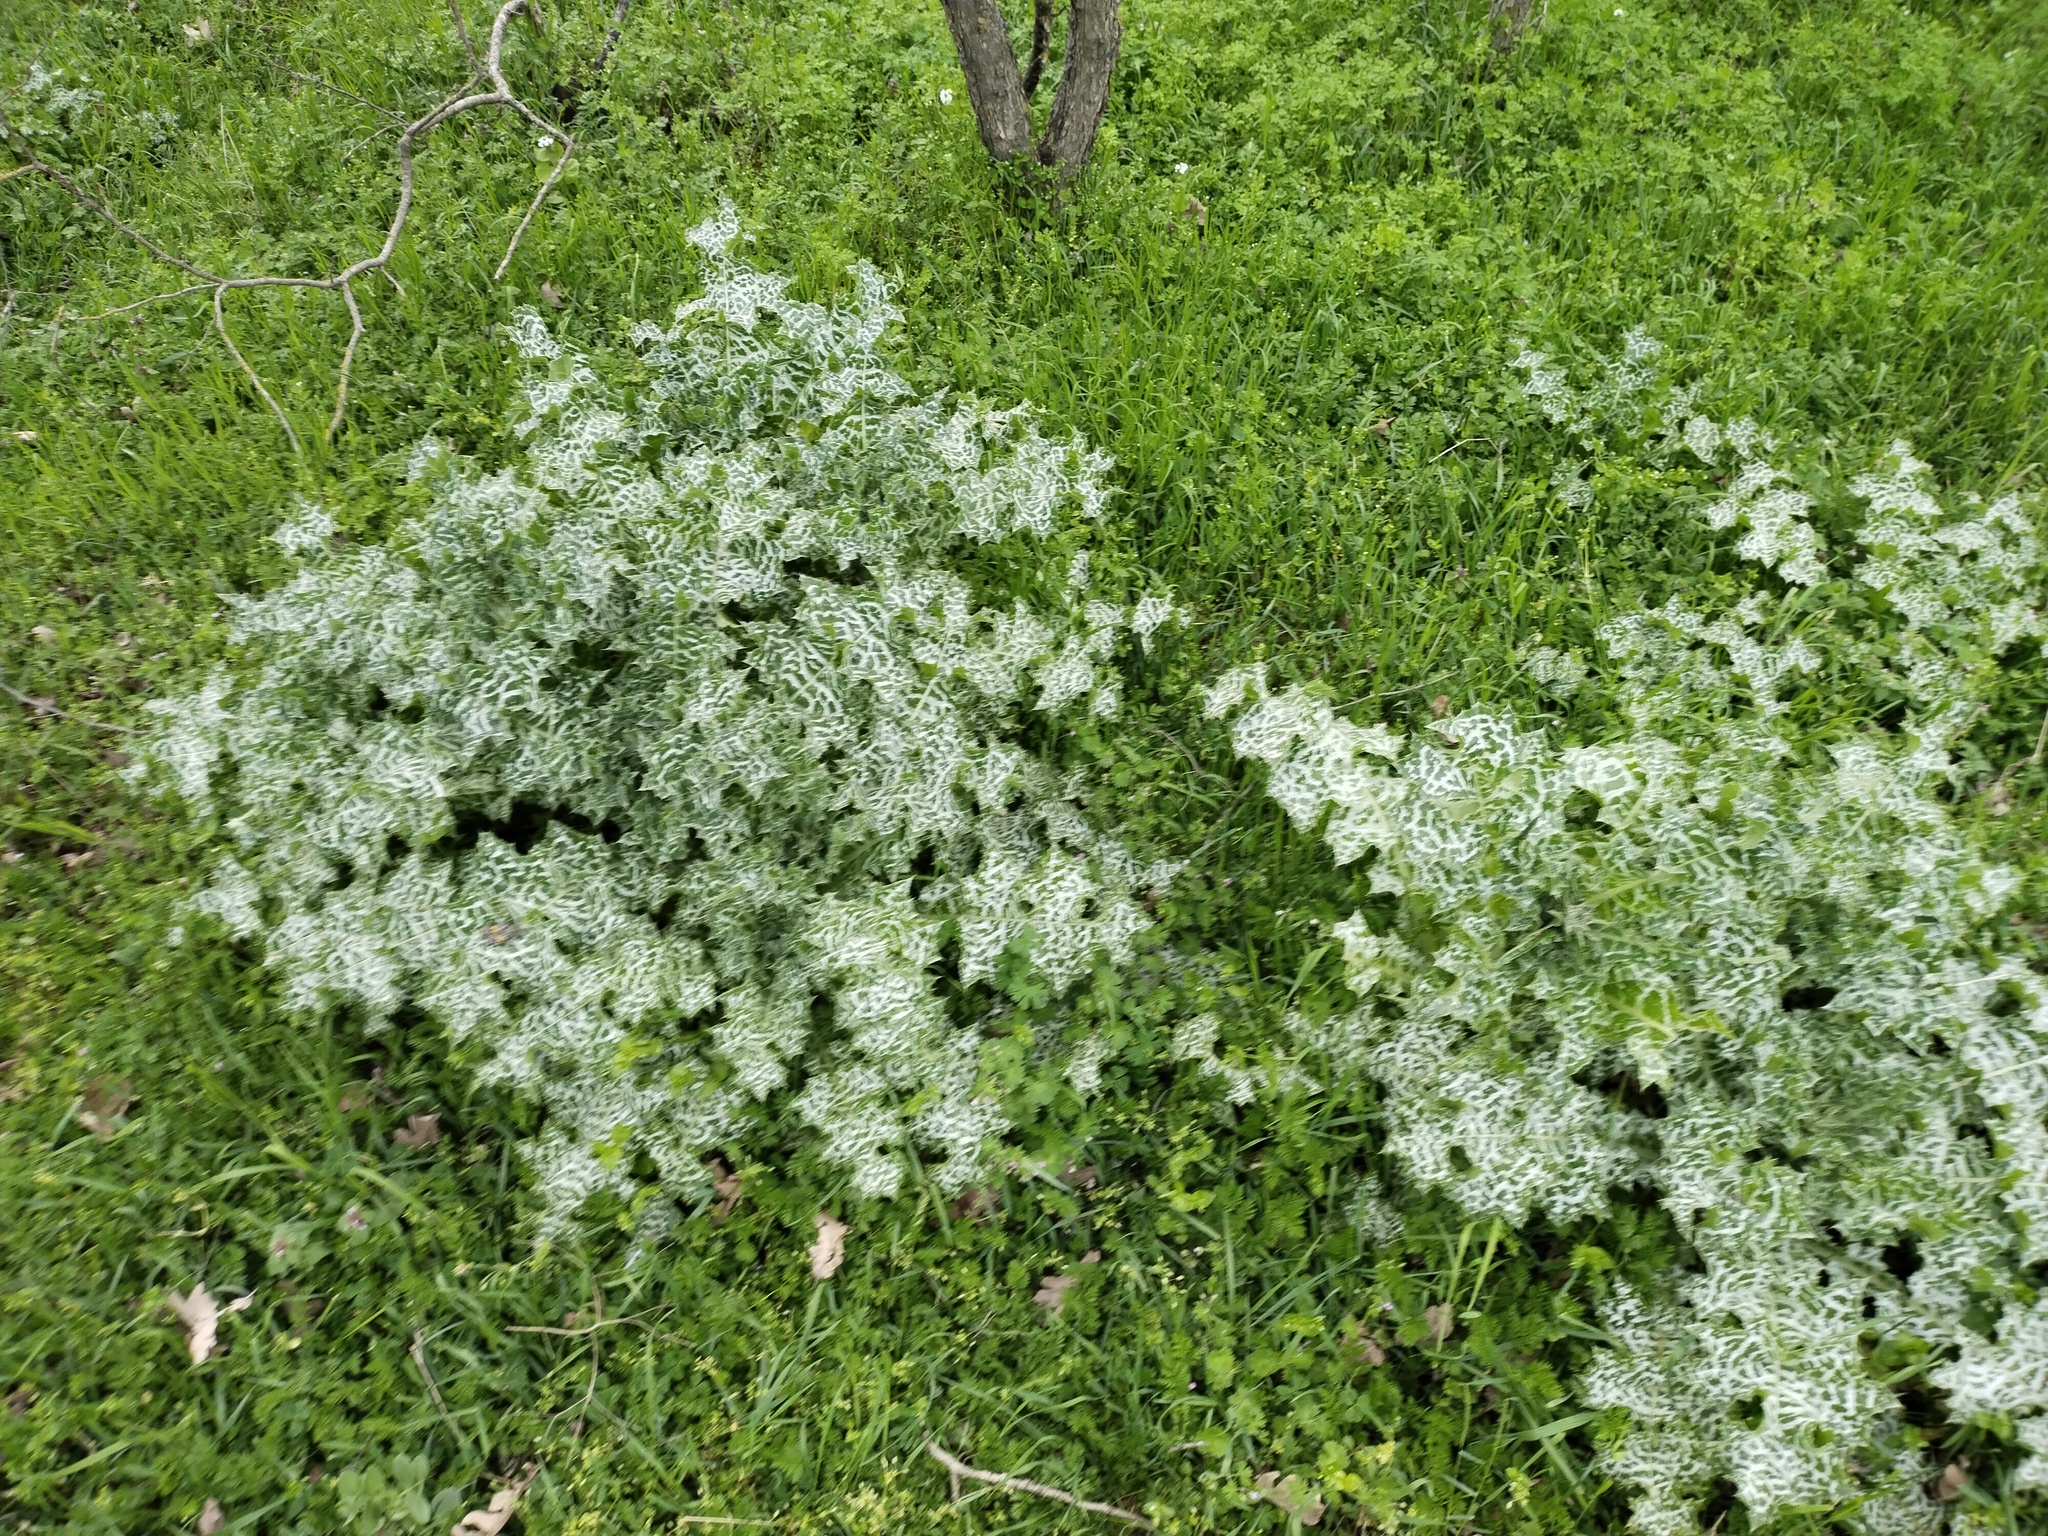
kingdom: Plantae
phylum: Tracheophyta
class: Magnoliopsida
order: Asterales
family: Asteraceae
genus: Silybum
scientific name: Silybum marianum
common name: Milk thistle
